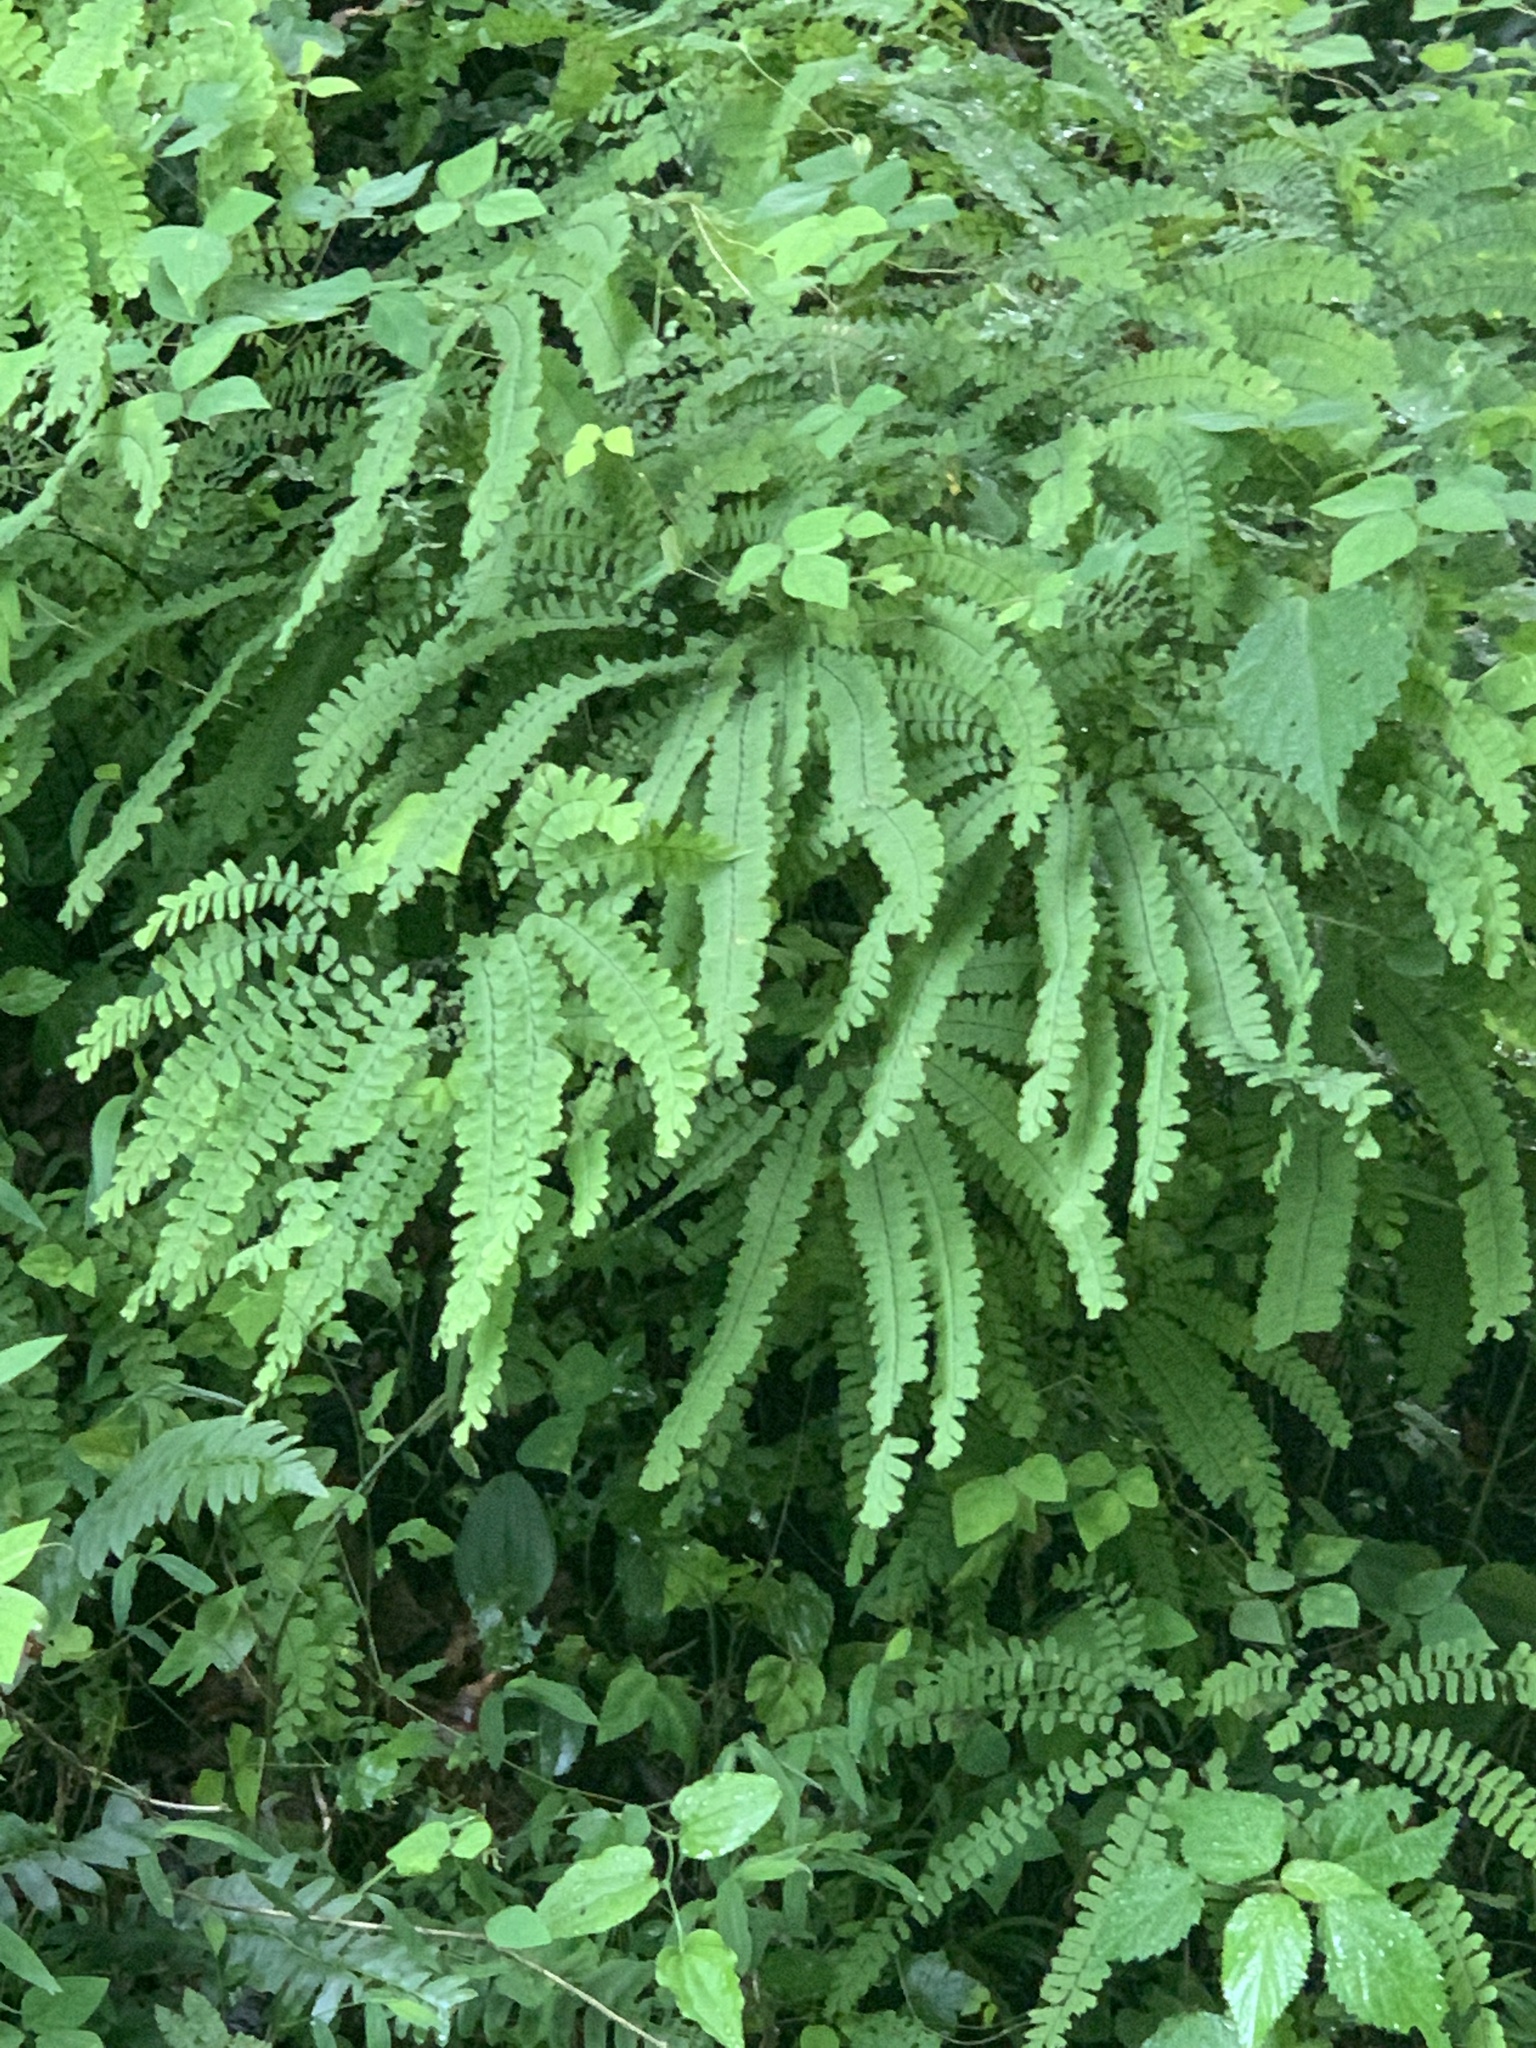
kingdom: Plantae
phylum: Tracheophyta
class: Polypodiopsida
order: Polypodiales
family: Pteridaceae
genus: Adiantum
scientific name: Adiantum pedatum
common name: Five-finger fern
